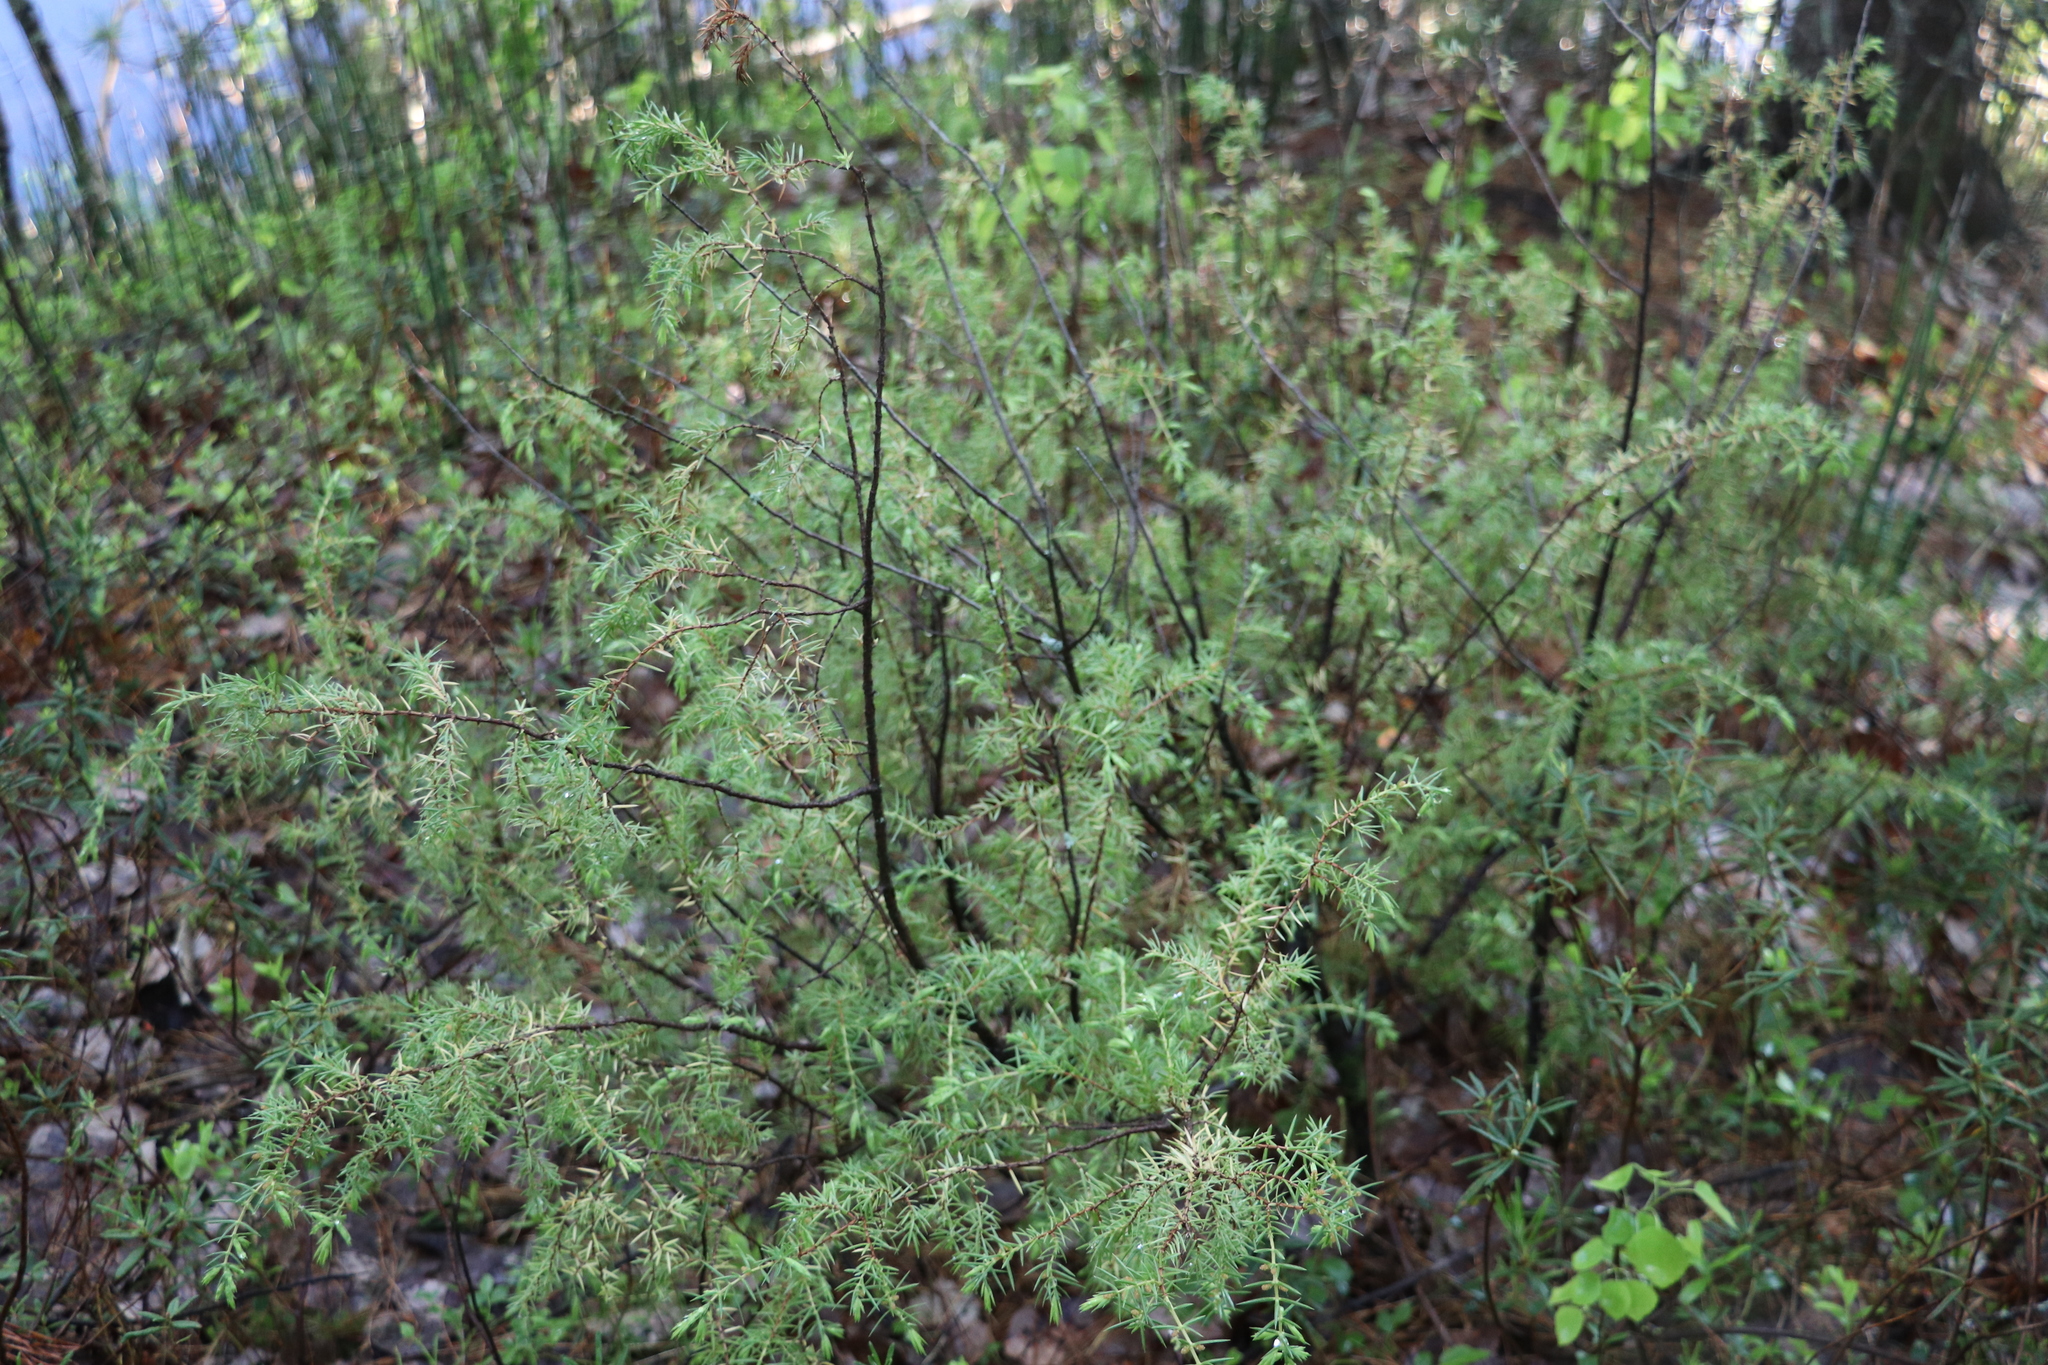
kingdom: Plantae
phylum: Tracheophyta
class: Pinopsida
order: Pinales
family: Cupressaceae
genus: Juniperus
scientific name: Juniperus communis
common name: Common juniper
